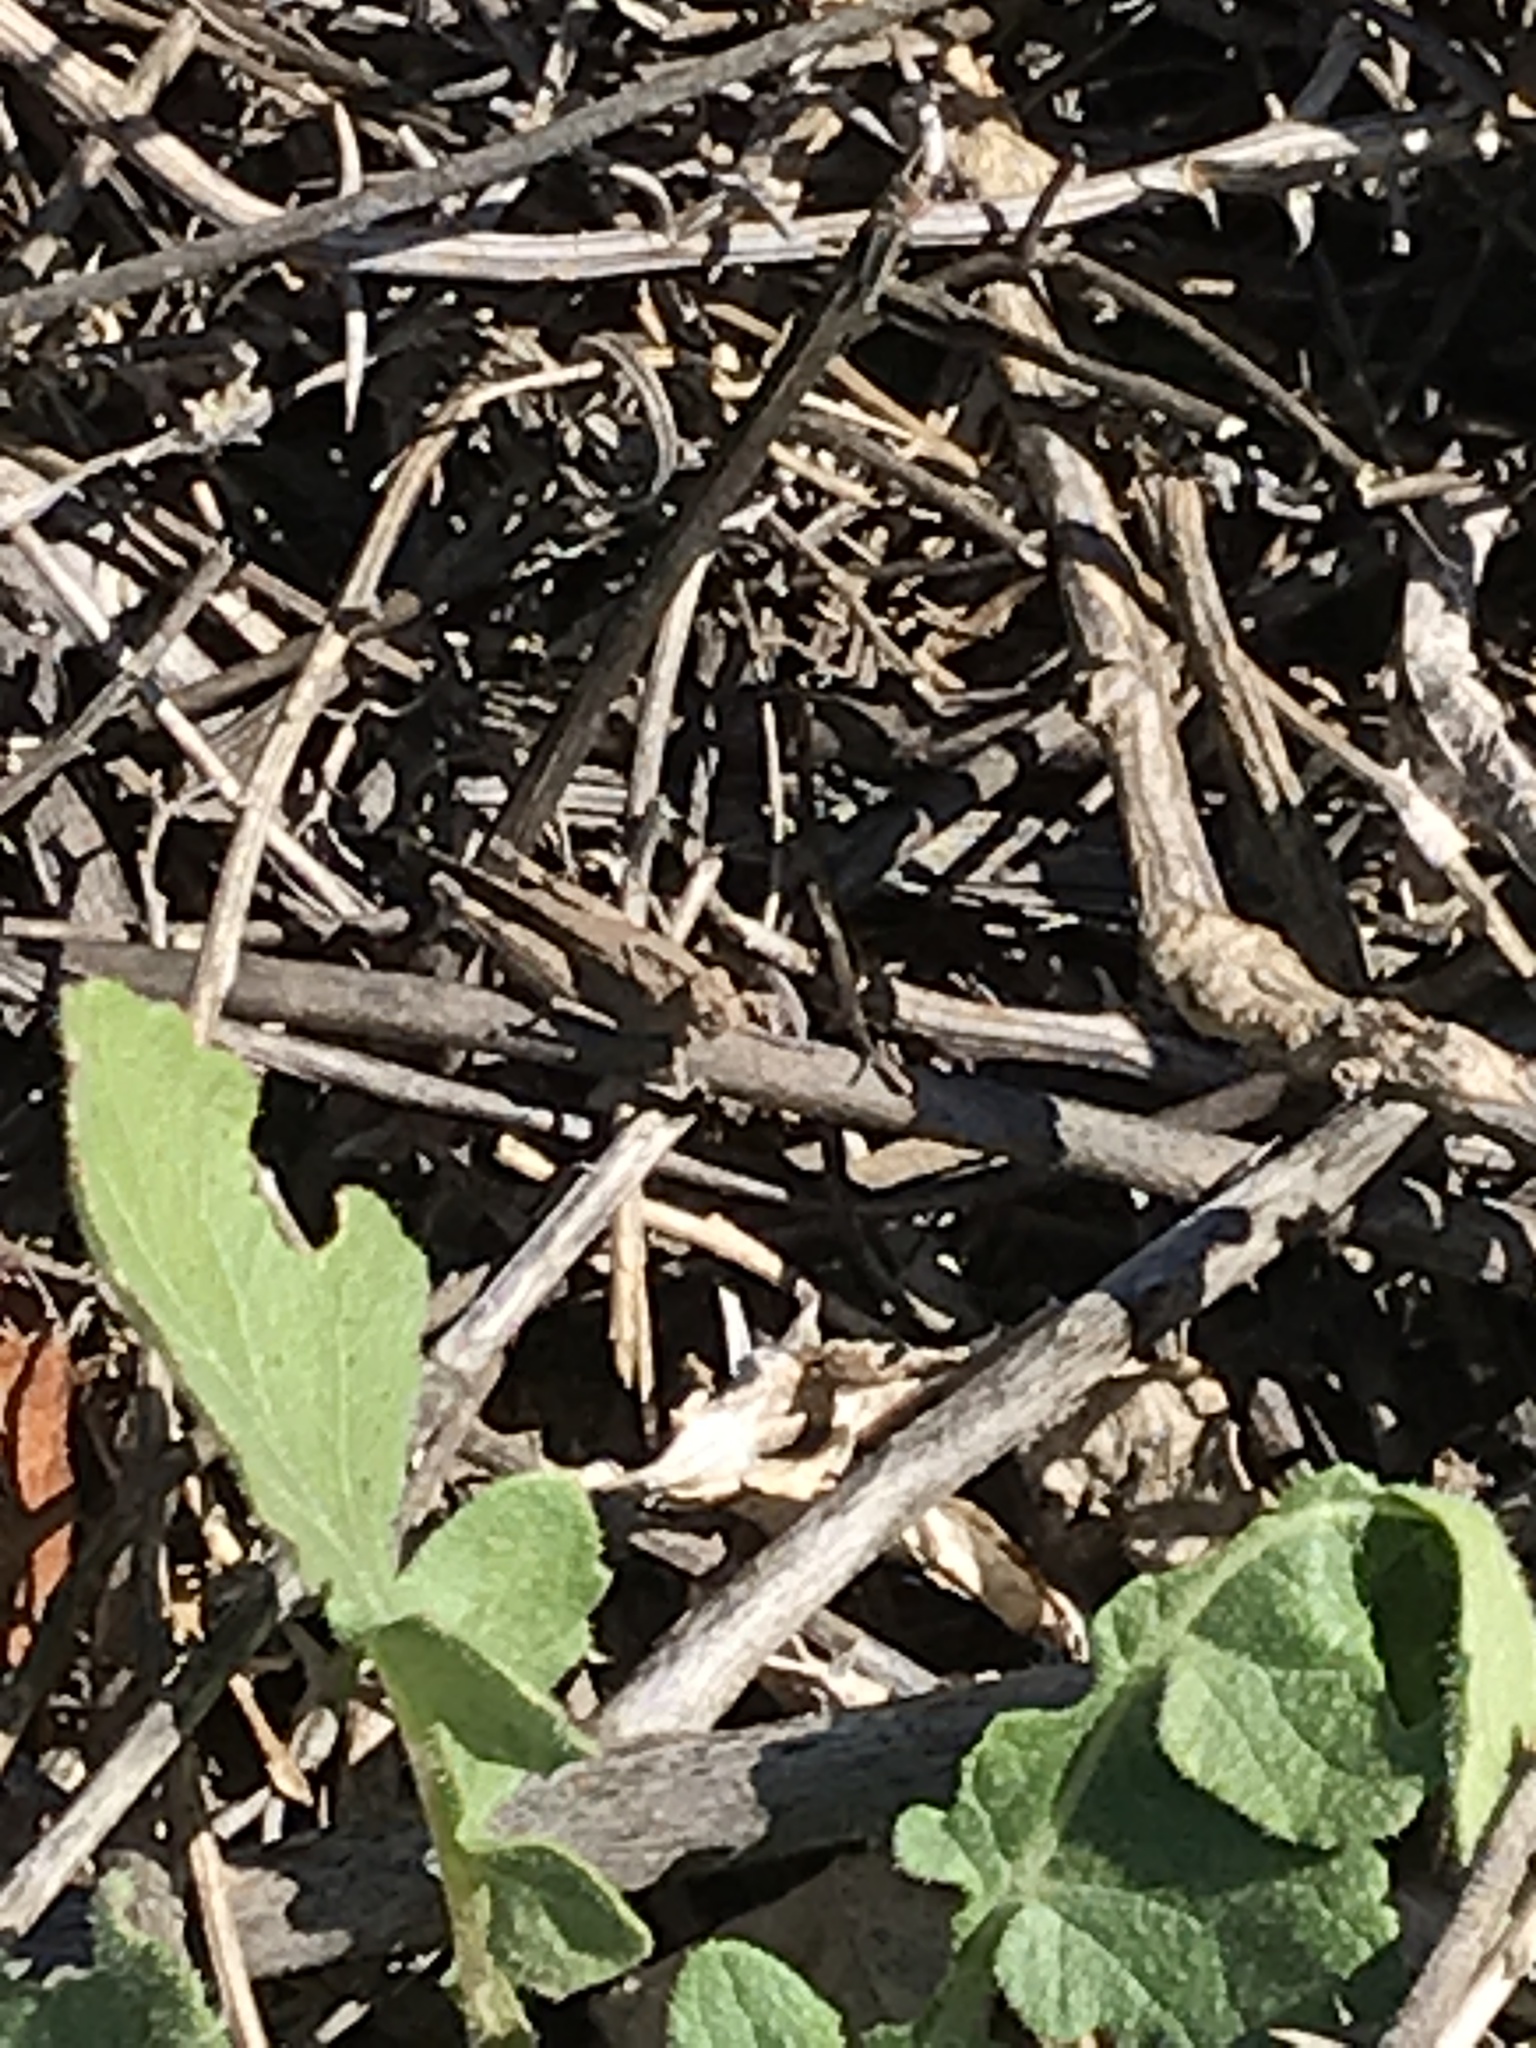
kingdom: Animalia
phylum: Arthropoda
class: Insecta
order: Orthoptera
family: Acrididae
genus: Lactista
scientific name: Lactista gibbosus
